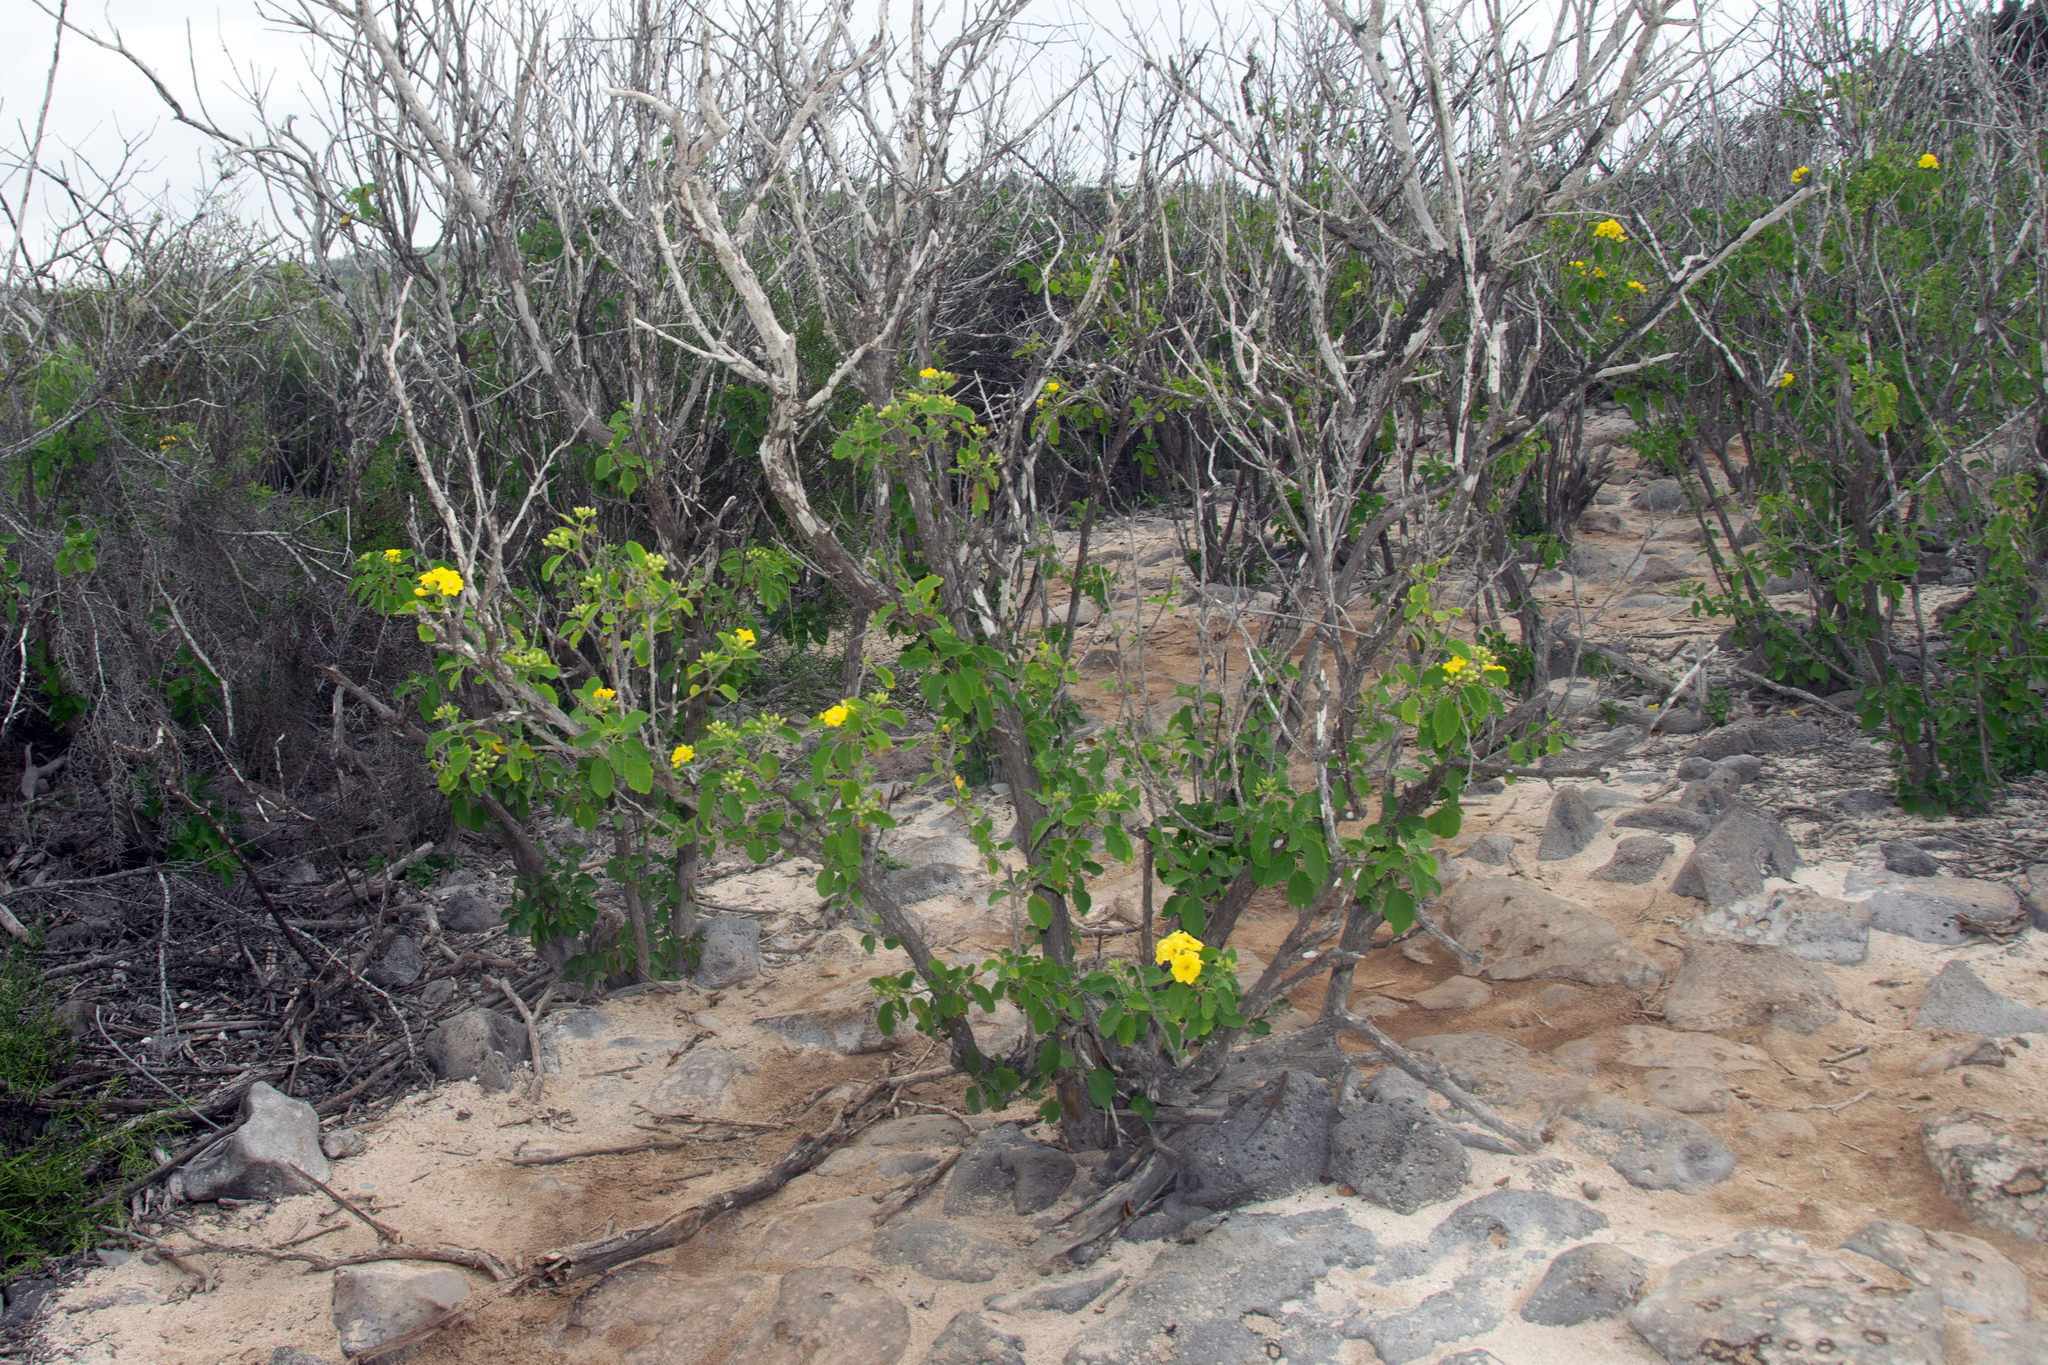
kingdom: Plantae
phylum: Tracheophyta
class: Magnoliopsida
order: Boraginales
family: Cordiaceae
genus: Cordia
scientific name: Cordia lutea
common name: Yellow geiger
